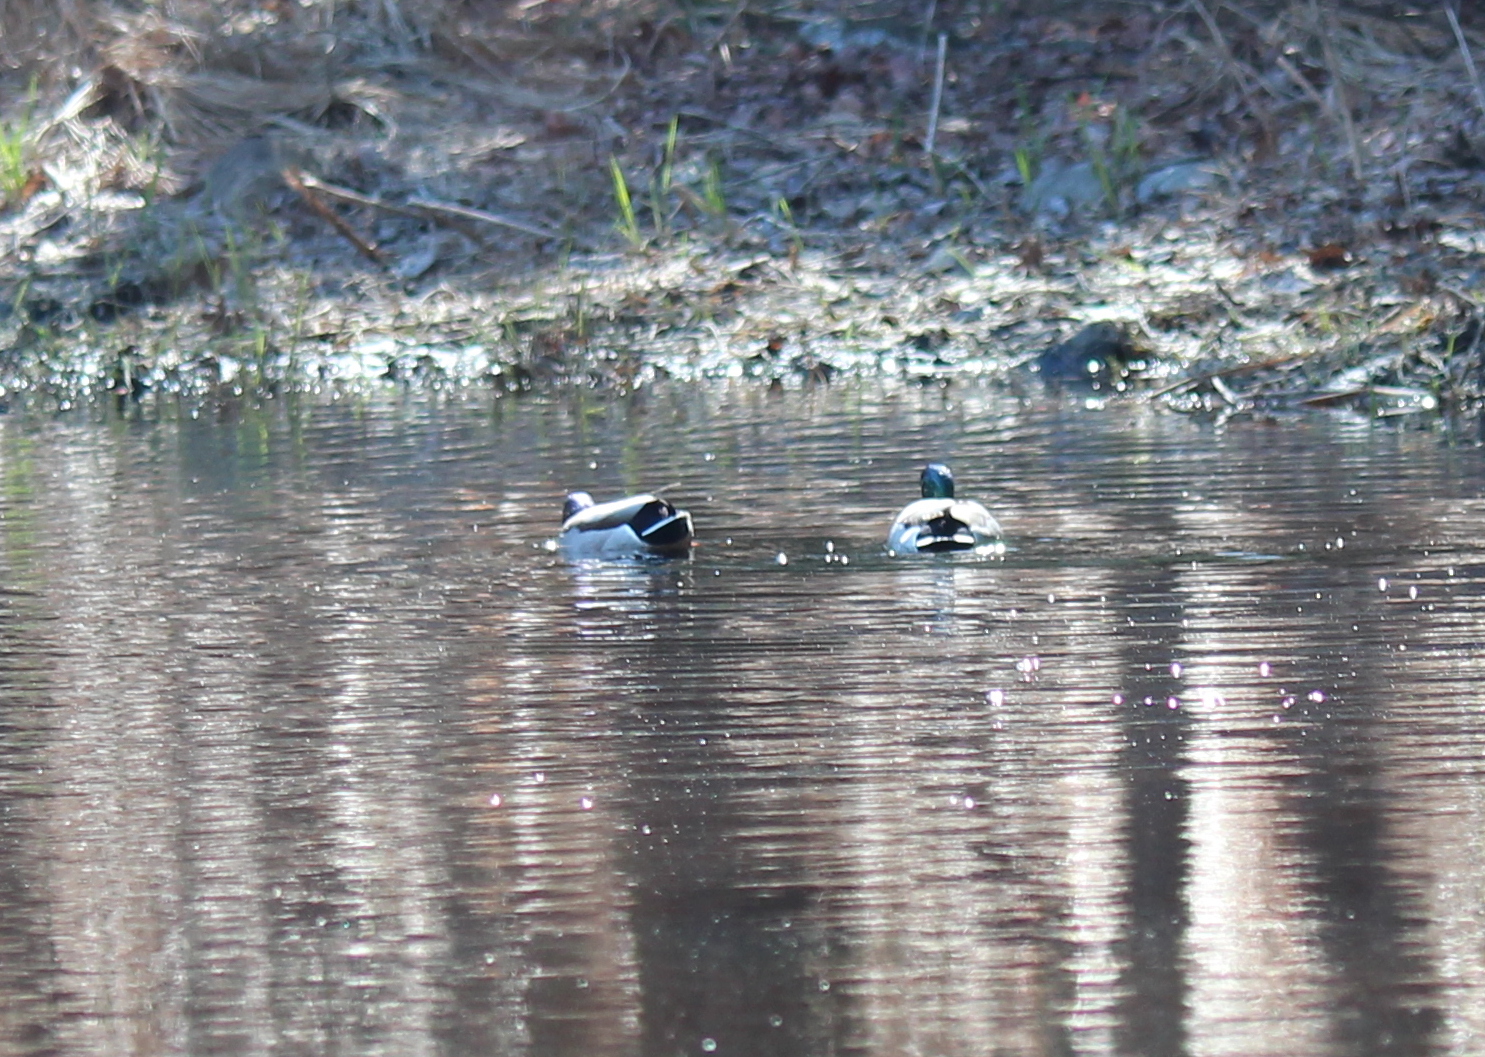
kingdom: Animalia
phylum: Chordata
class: Aves
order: Anseriformes
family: Anatidae
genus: Anas
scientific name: Anas platyrhynchos
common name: Mallard
